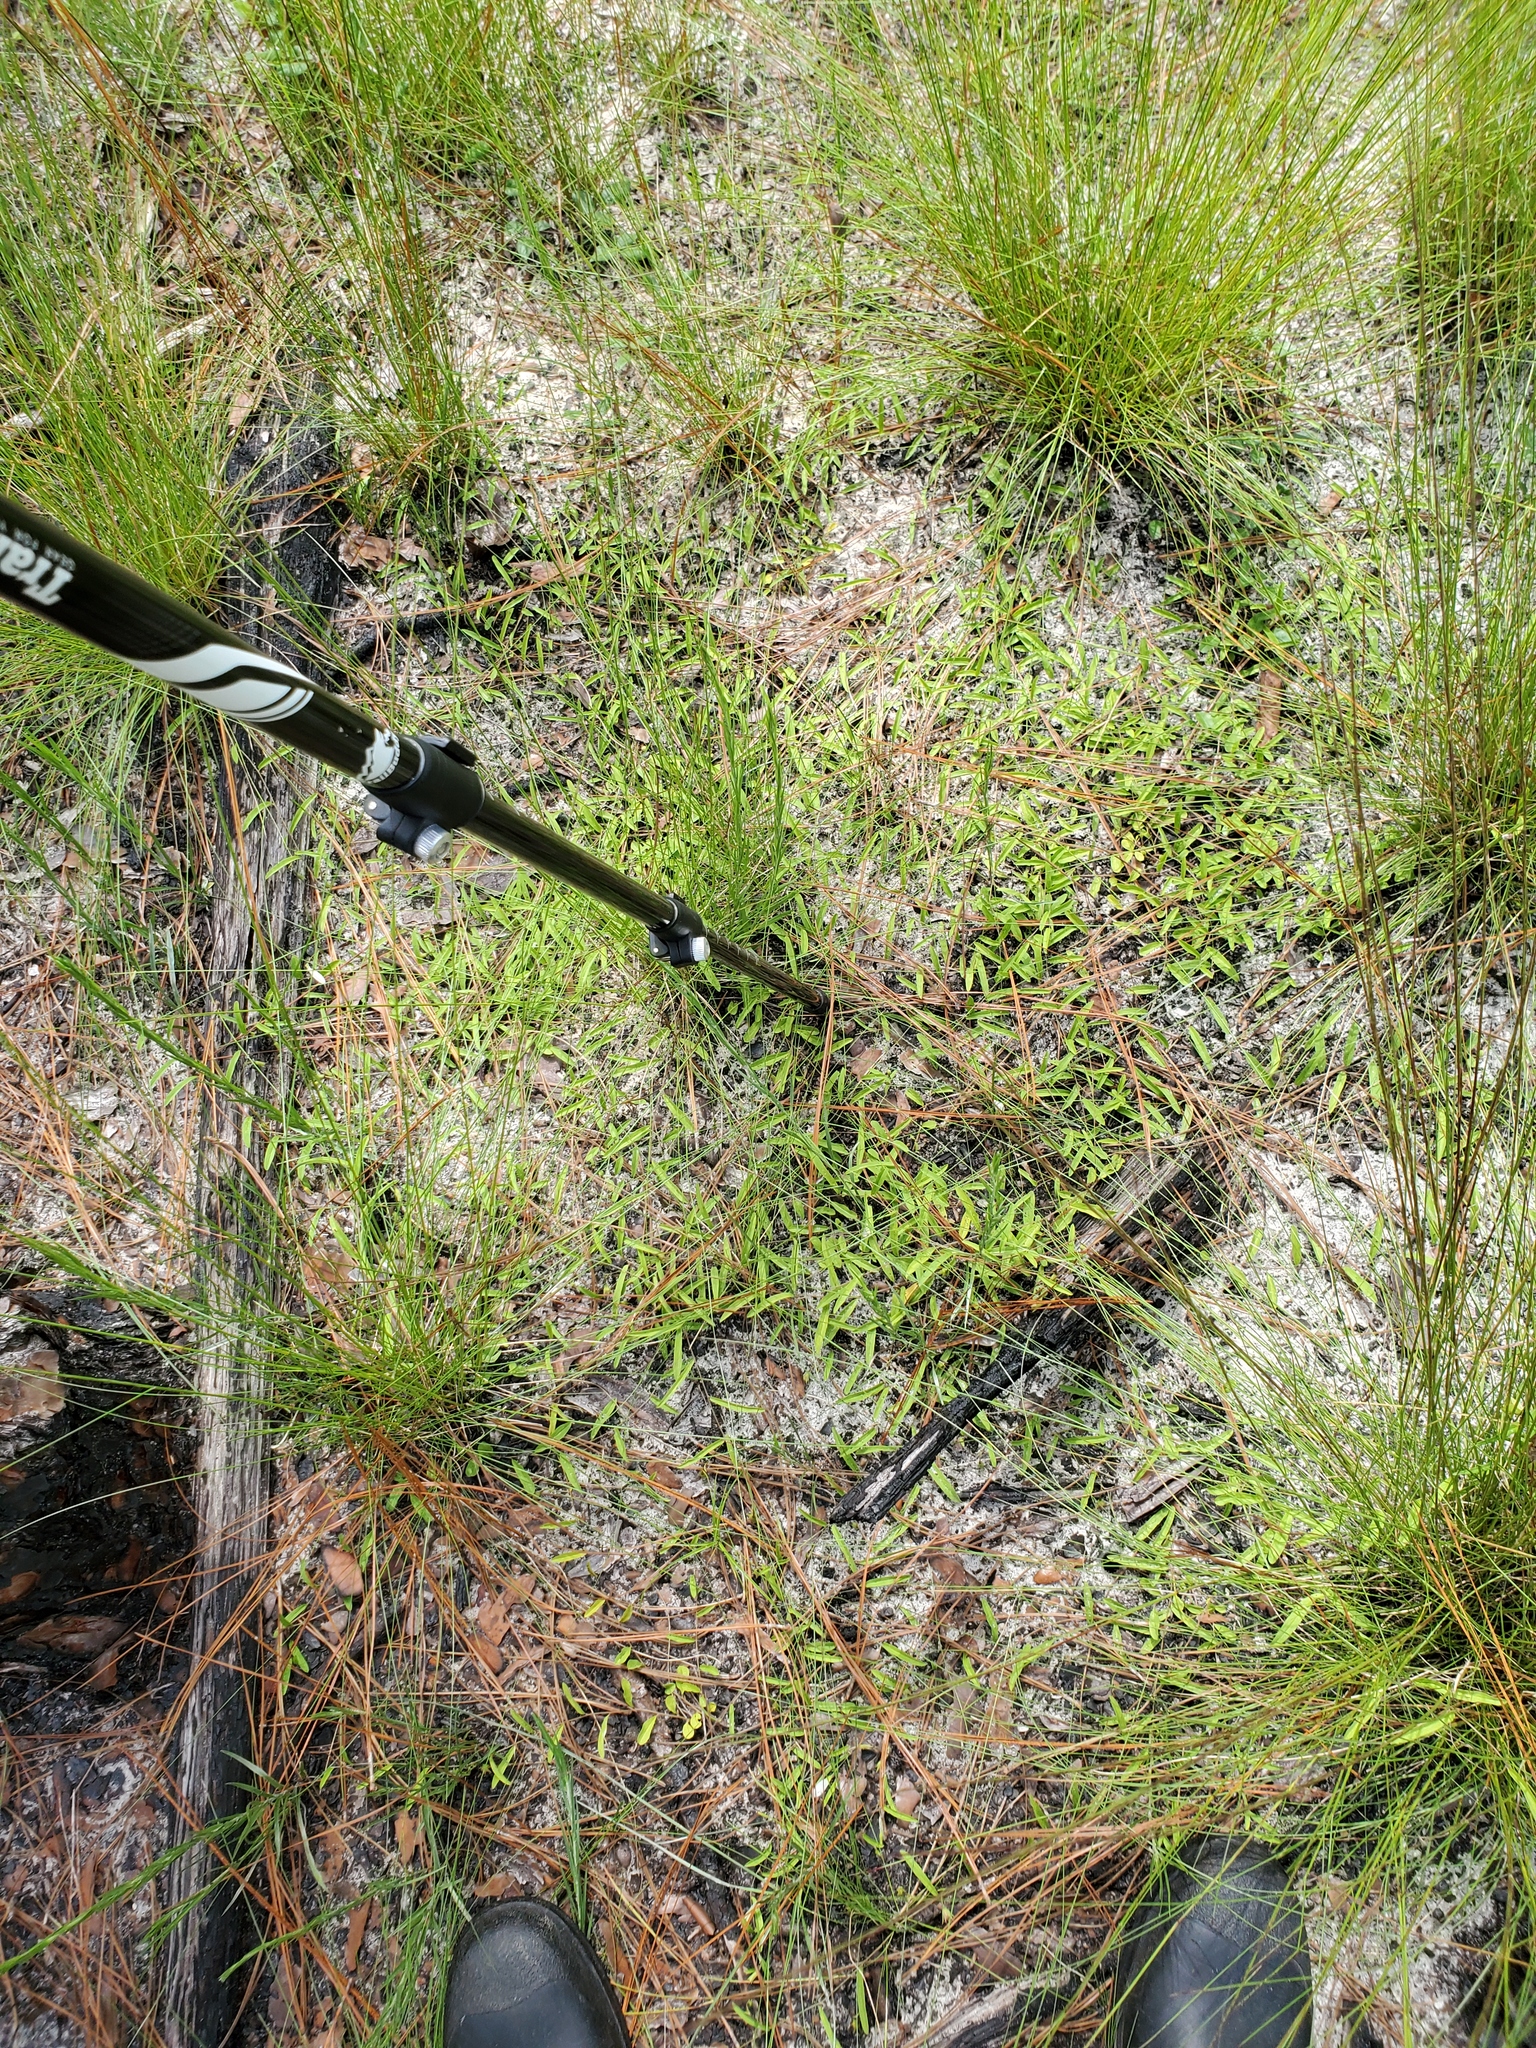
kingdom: Plantae
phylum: Tracheophyta
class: Magnoliopsida
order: Solanales
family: Convolvulaceae
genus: Stylisma
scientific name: Stylisma patens
